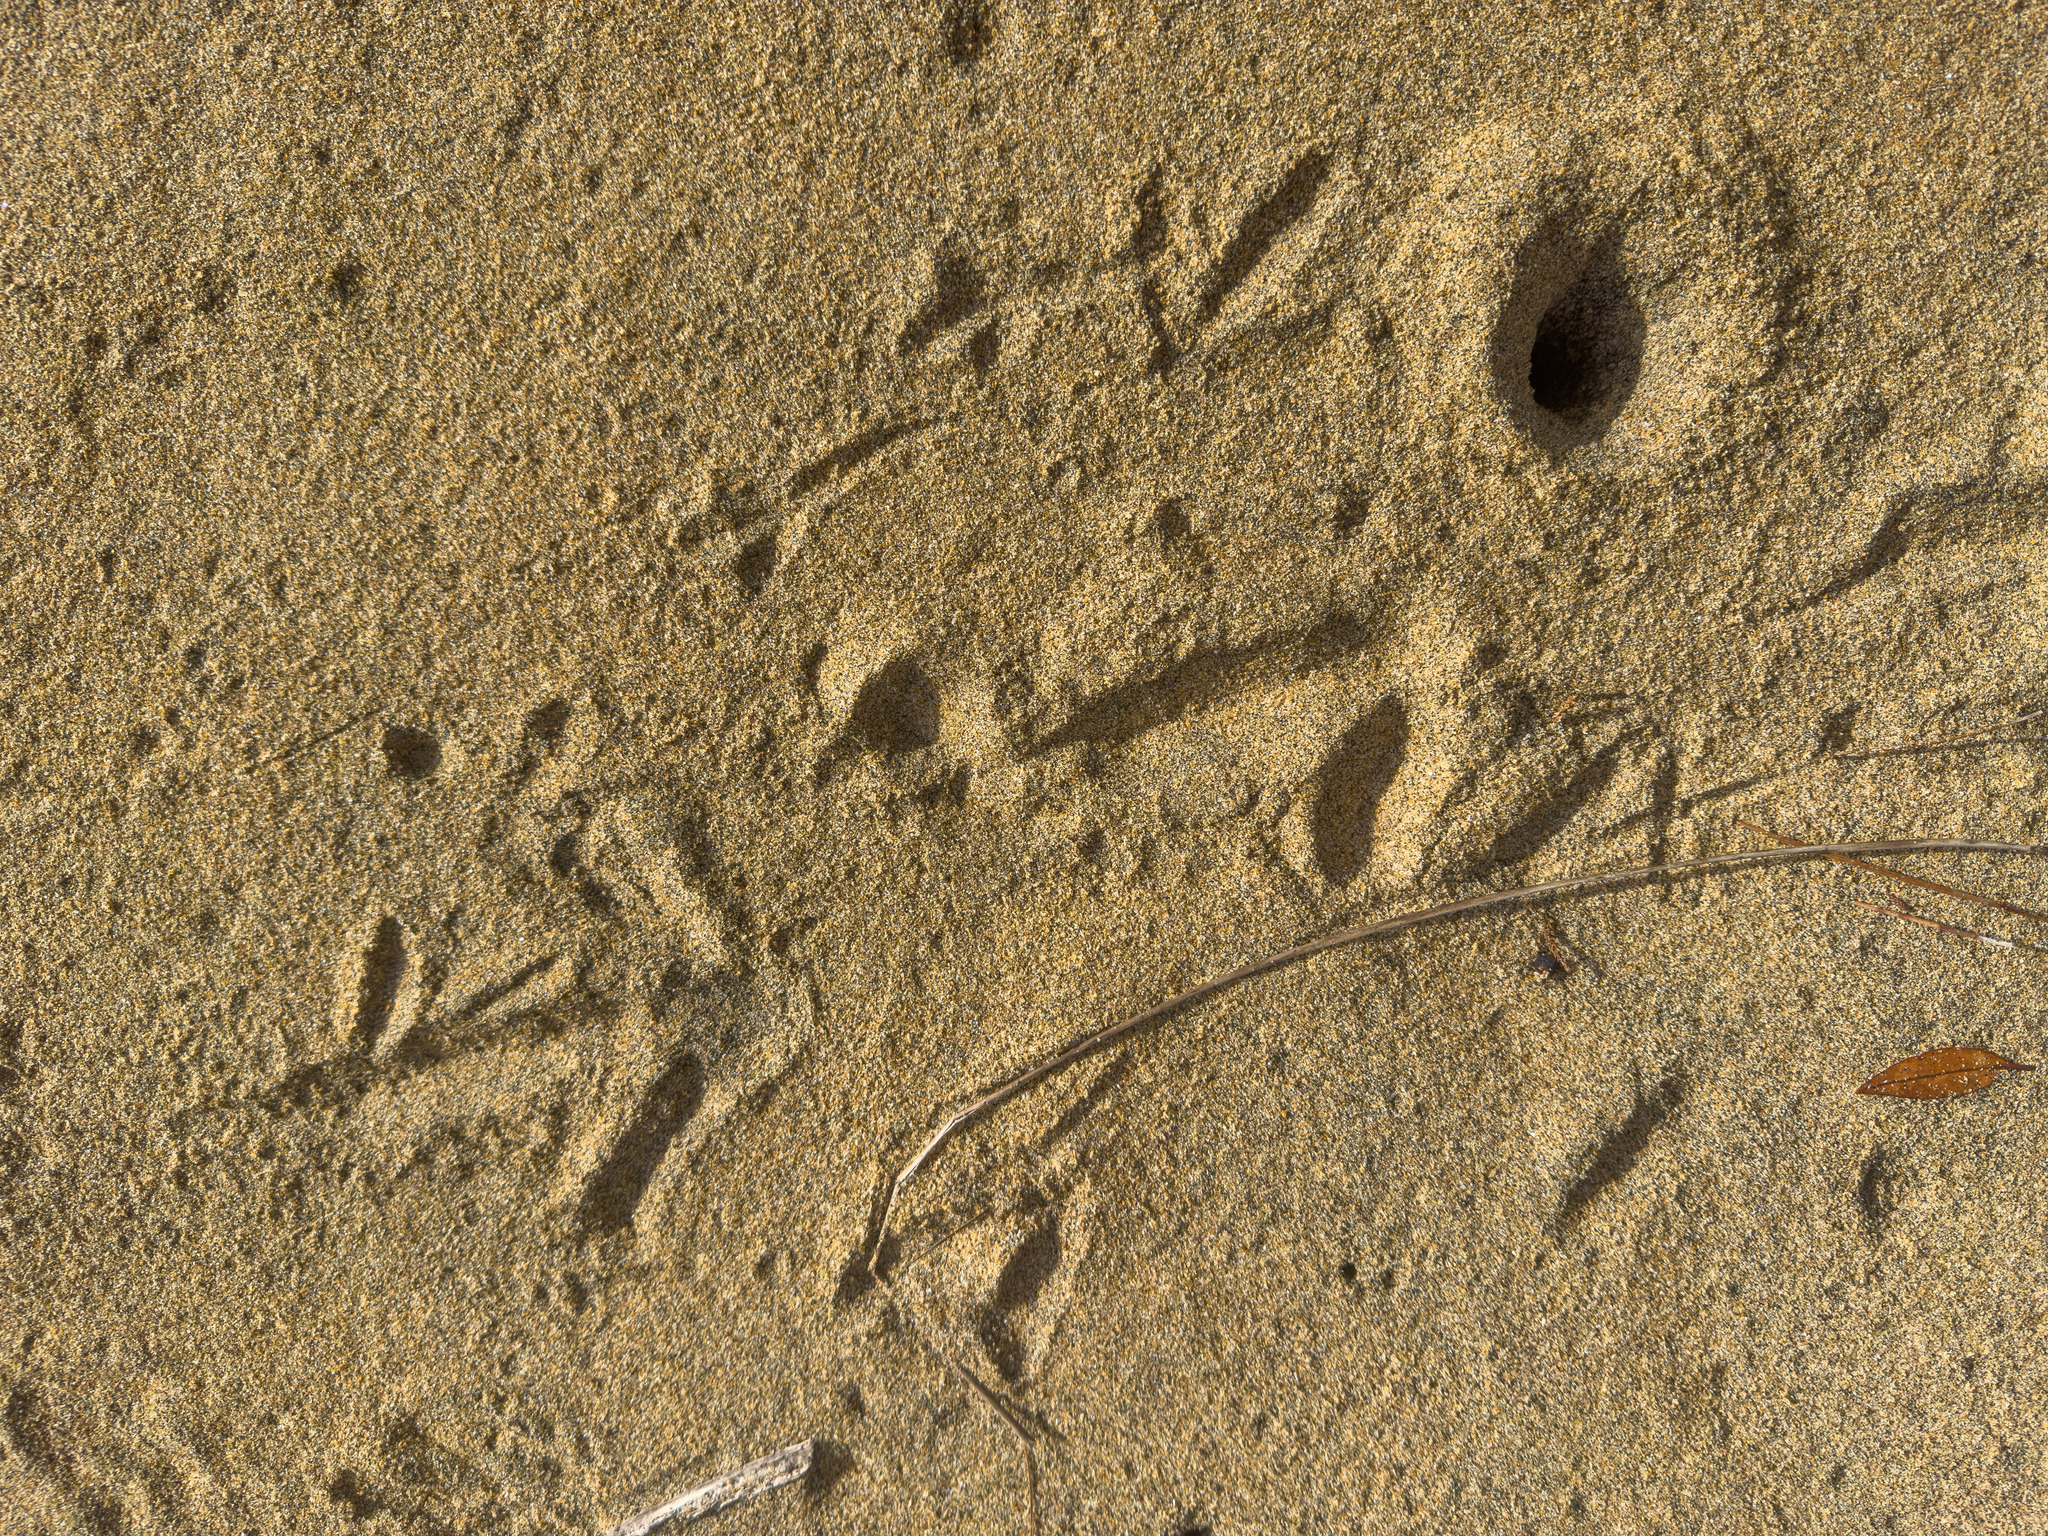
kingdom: Animalia
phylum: Chordata
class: Aves
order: Apterygiformes
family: Apterygidae
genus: Apteryx
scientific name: Apteryx australis
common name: Southern brown kiwi
